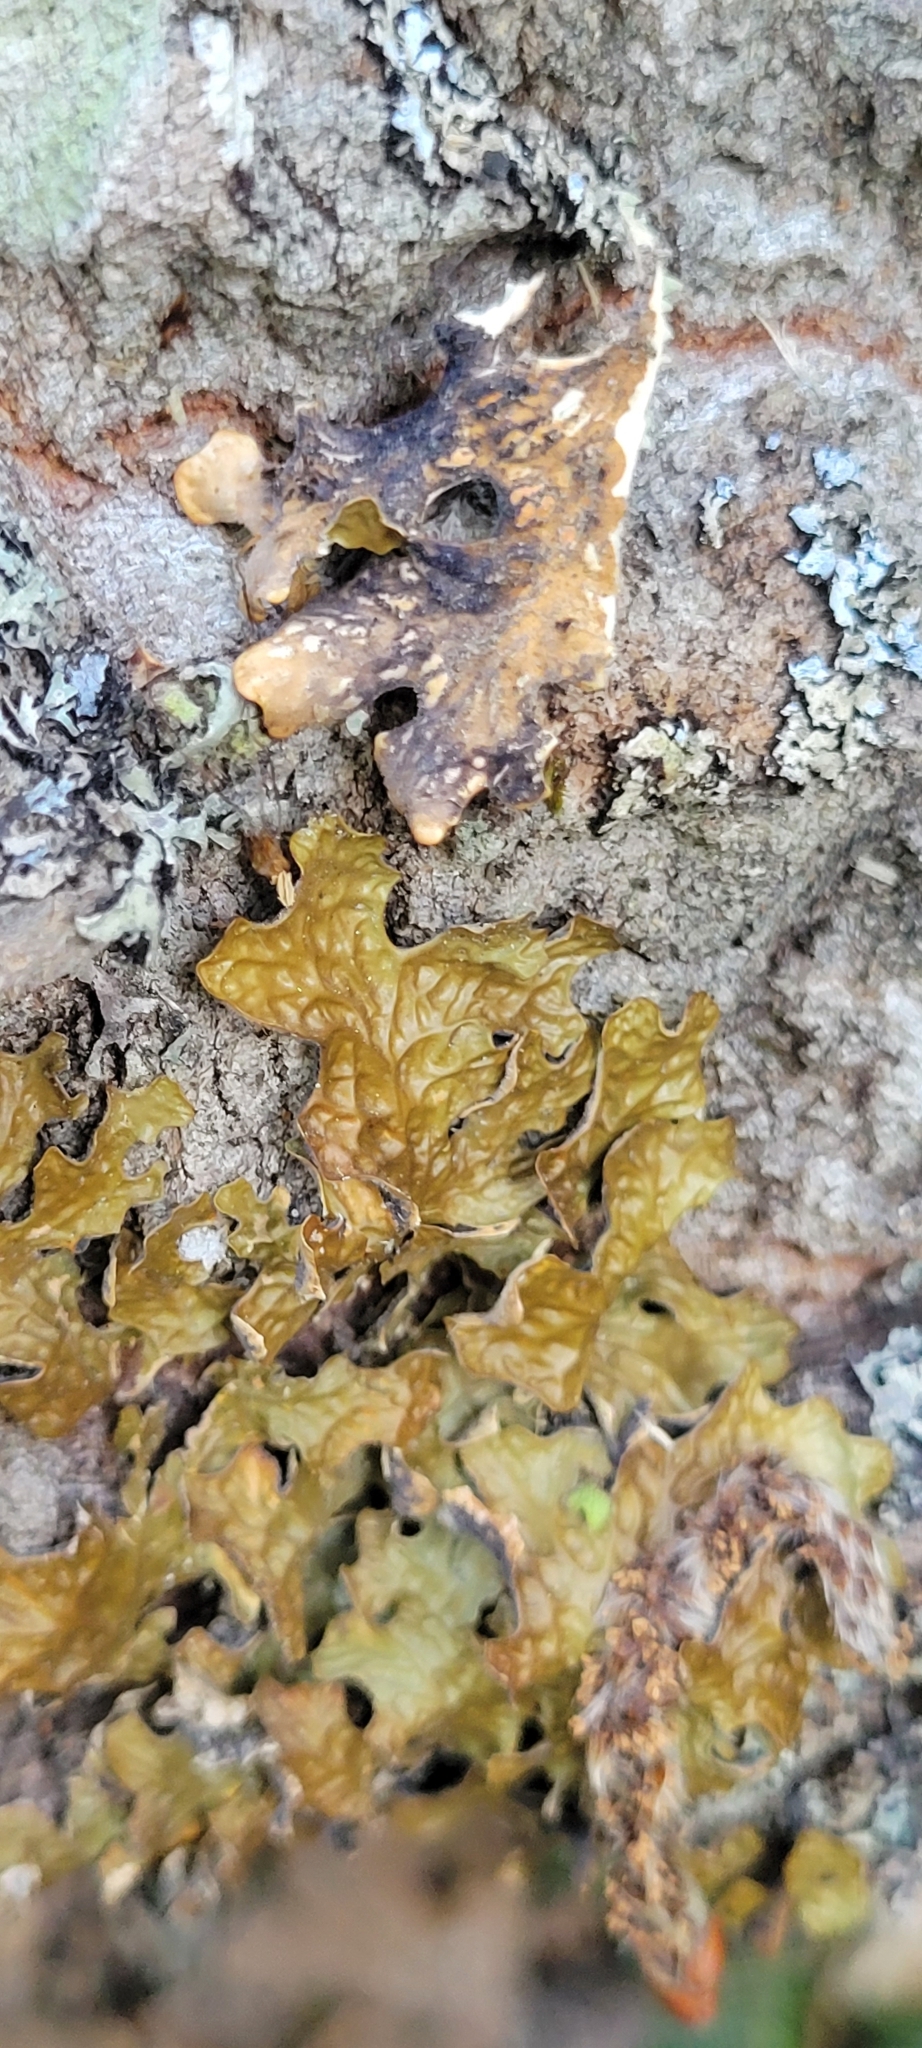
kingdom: Fungi
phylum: Ascomycota
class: Lecanoromycetes
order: Peltigerales
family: Lobariaceae
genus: Lobaria
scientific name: Lobaria pulmonaria
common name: Lungwort
